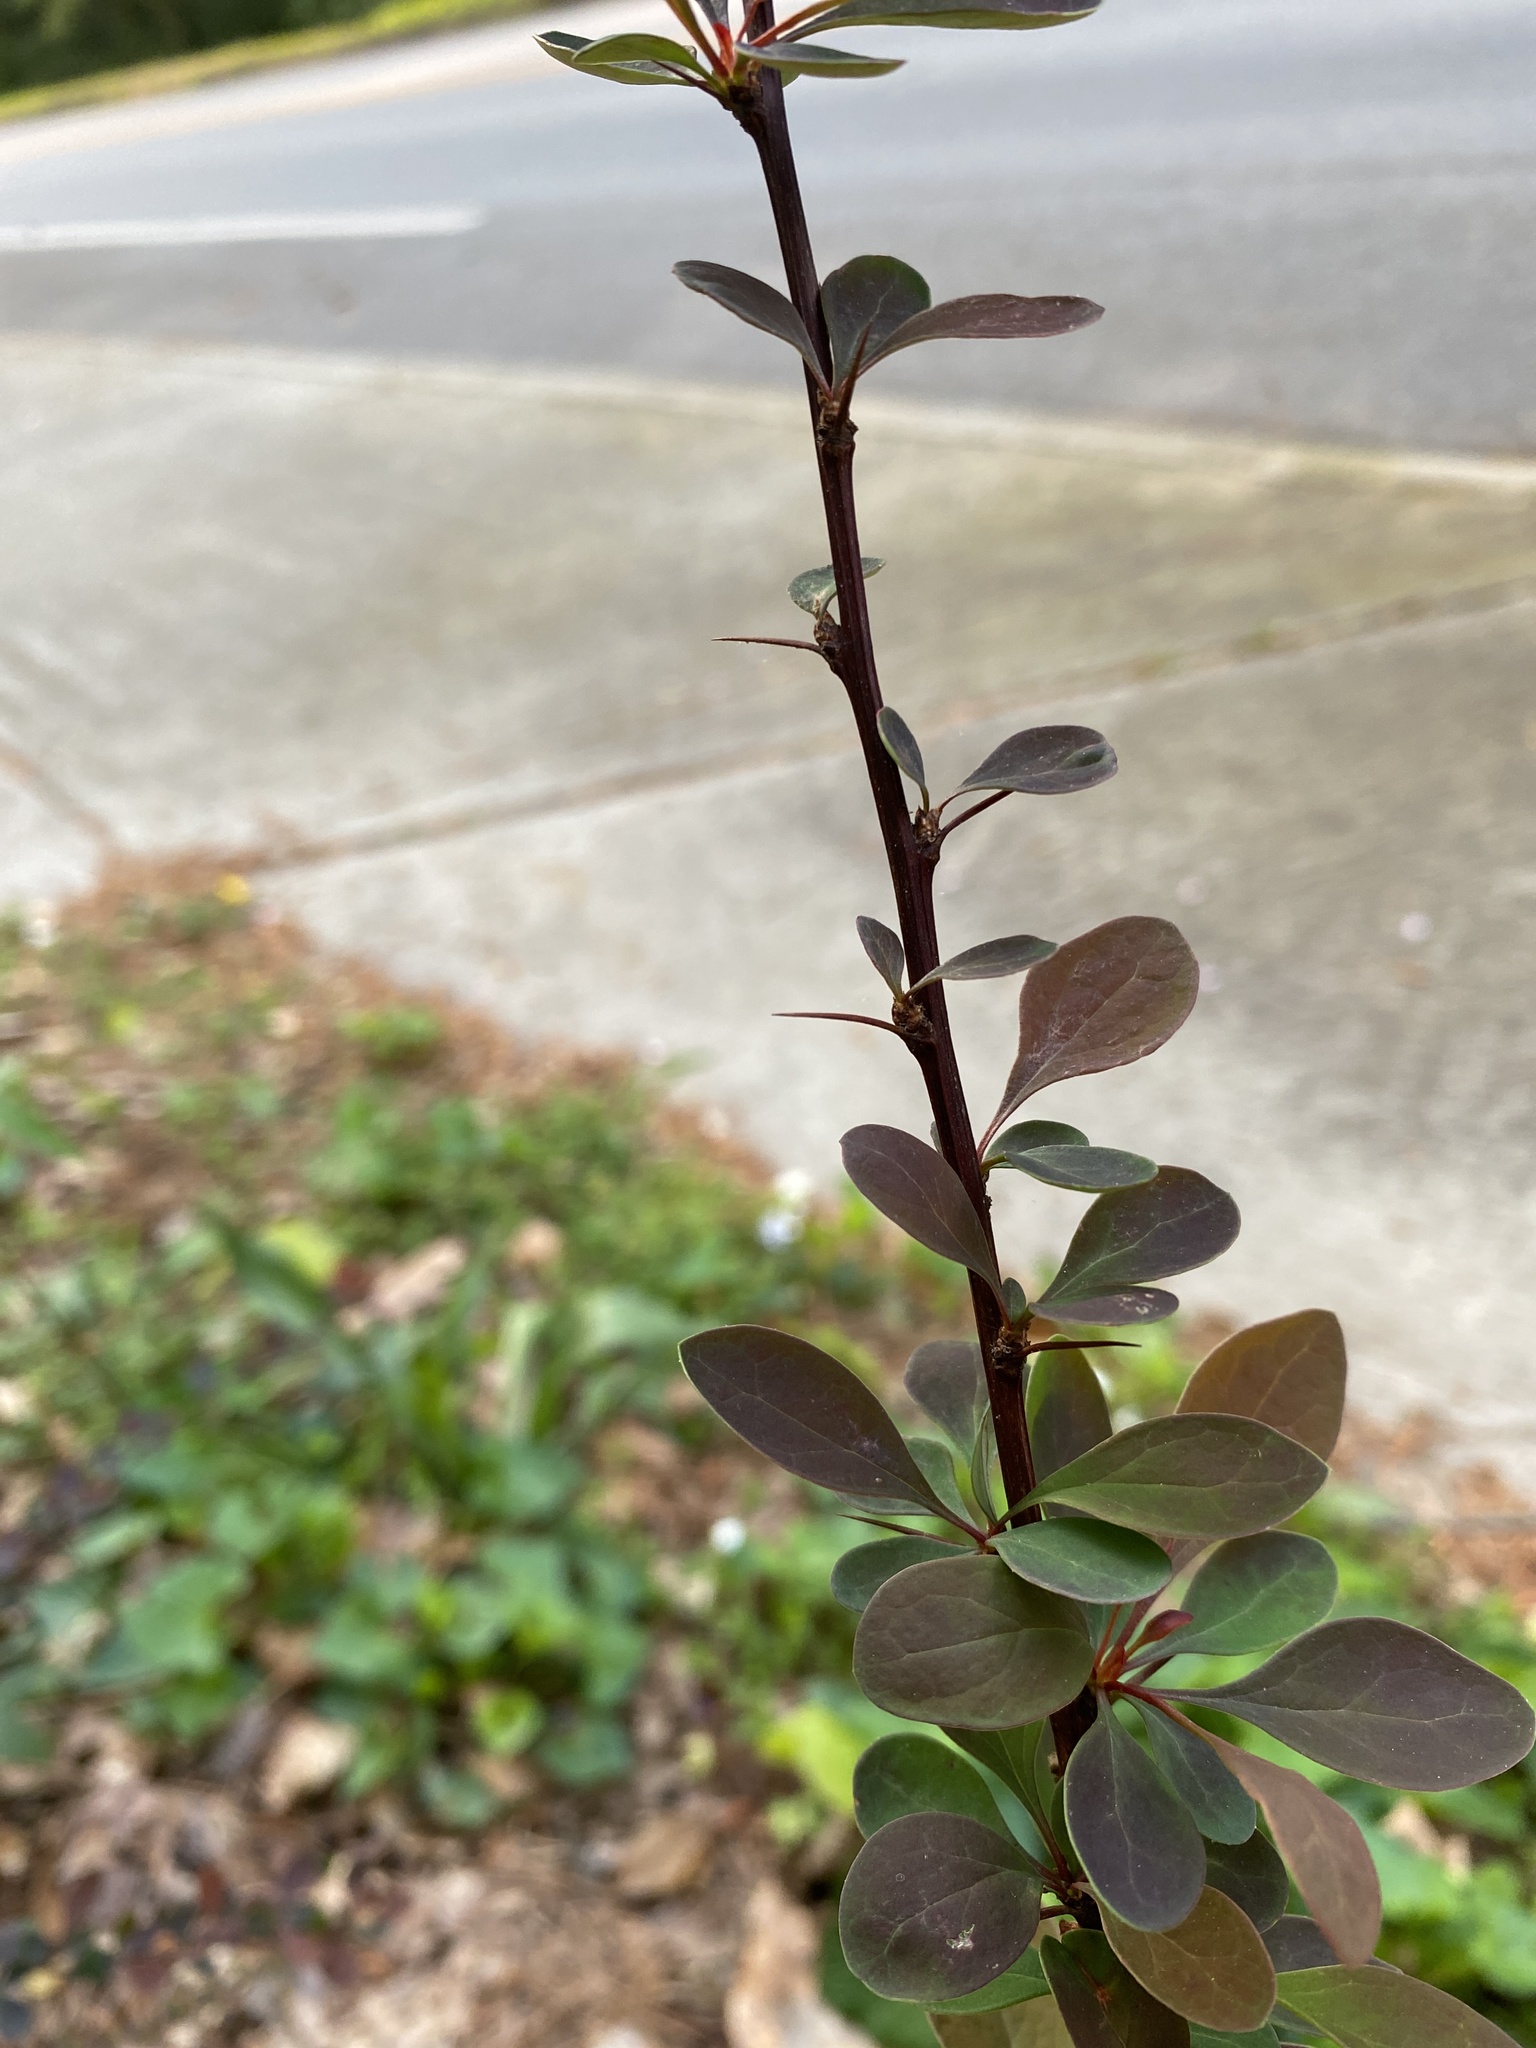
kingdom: Plantae
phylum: Tracheophyta
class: Magnoliopsida
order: Ranunculales
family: Berberidaceae
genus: Berberis
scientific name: Berberis thunbergii
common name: Japanese barberry
